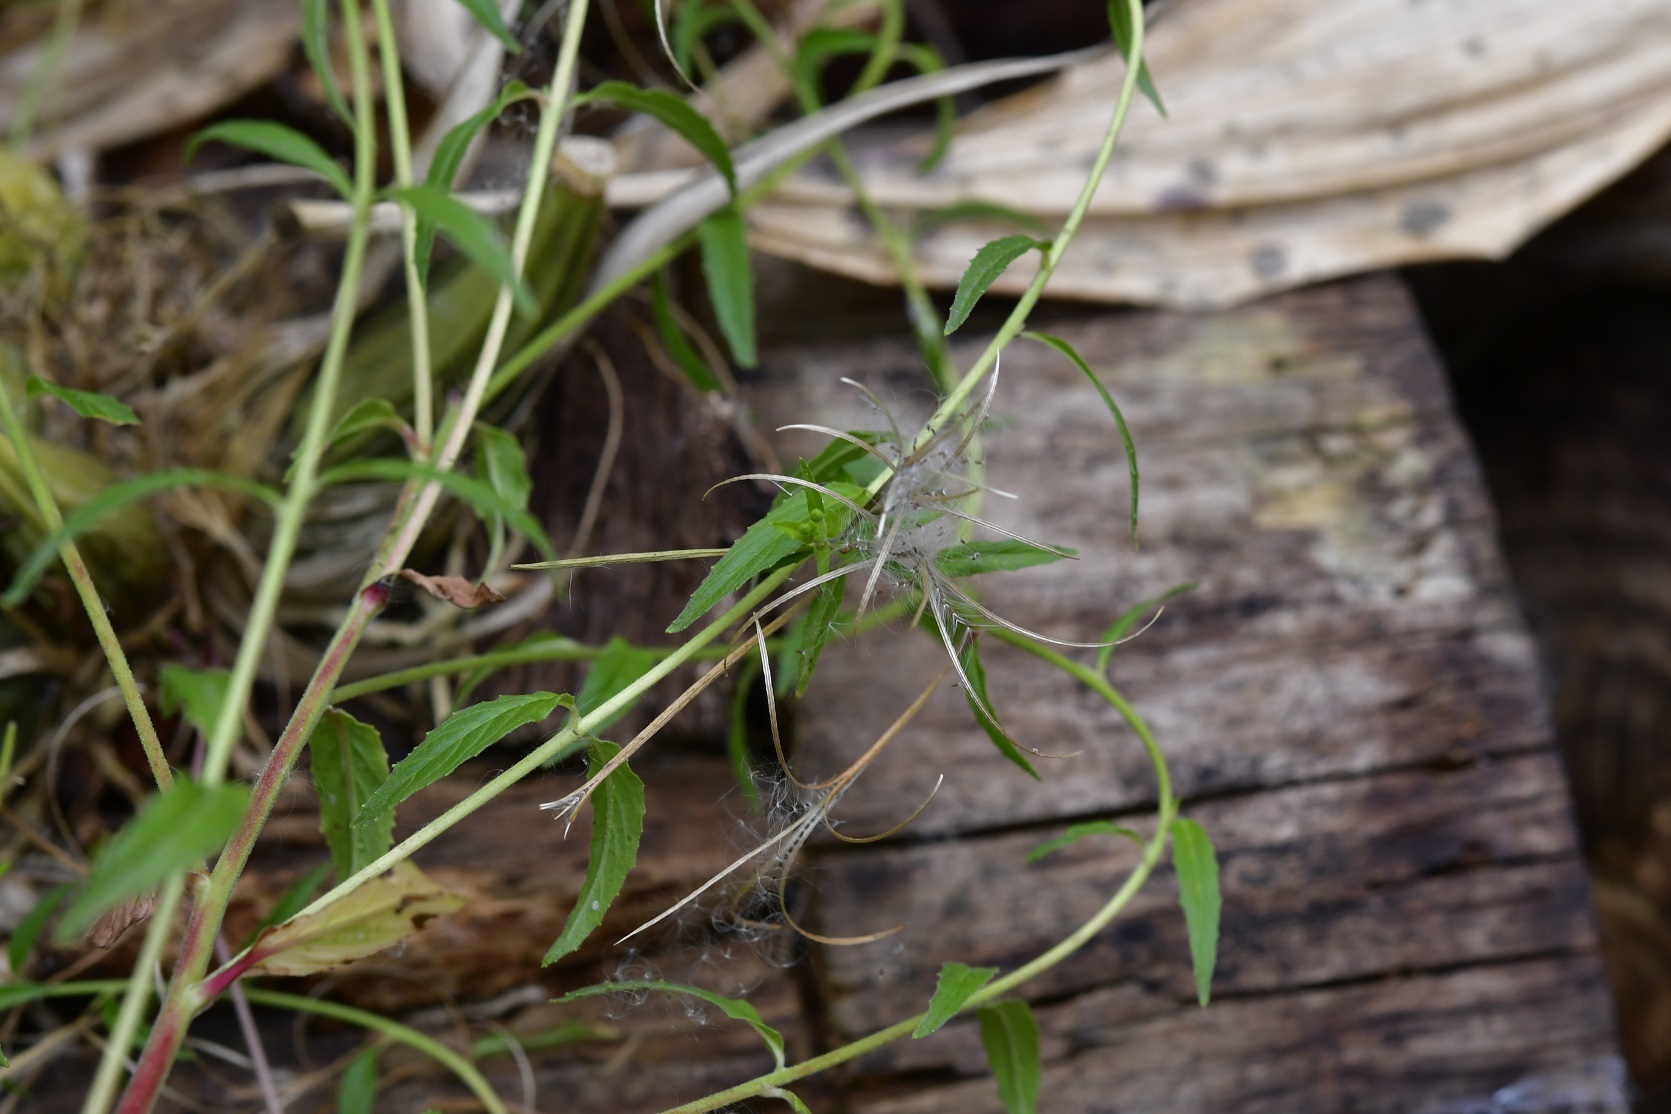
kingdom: Plantae
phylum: Tracheophyta
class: Magnoliopsida
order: Myrtales
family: Onagraceae
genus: Epilobium
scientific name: Epilobium ciliatum
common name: American willowherb
